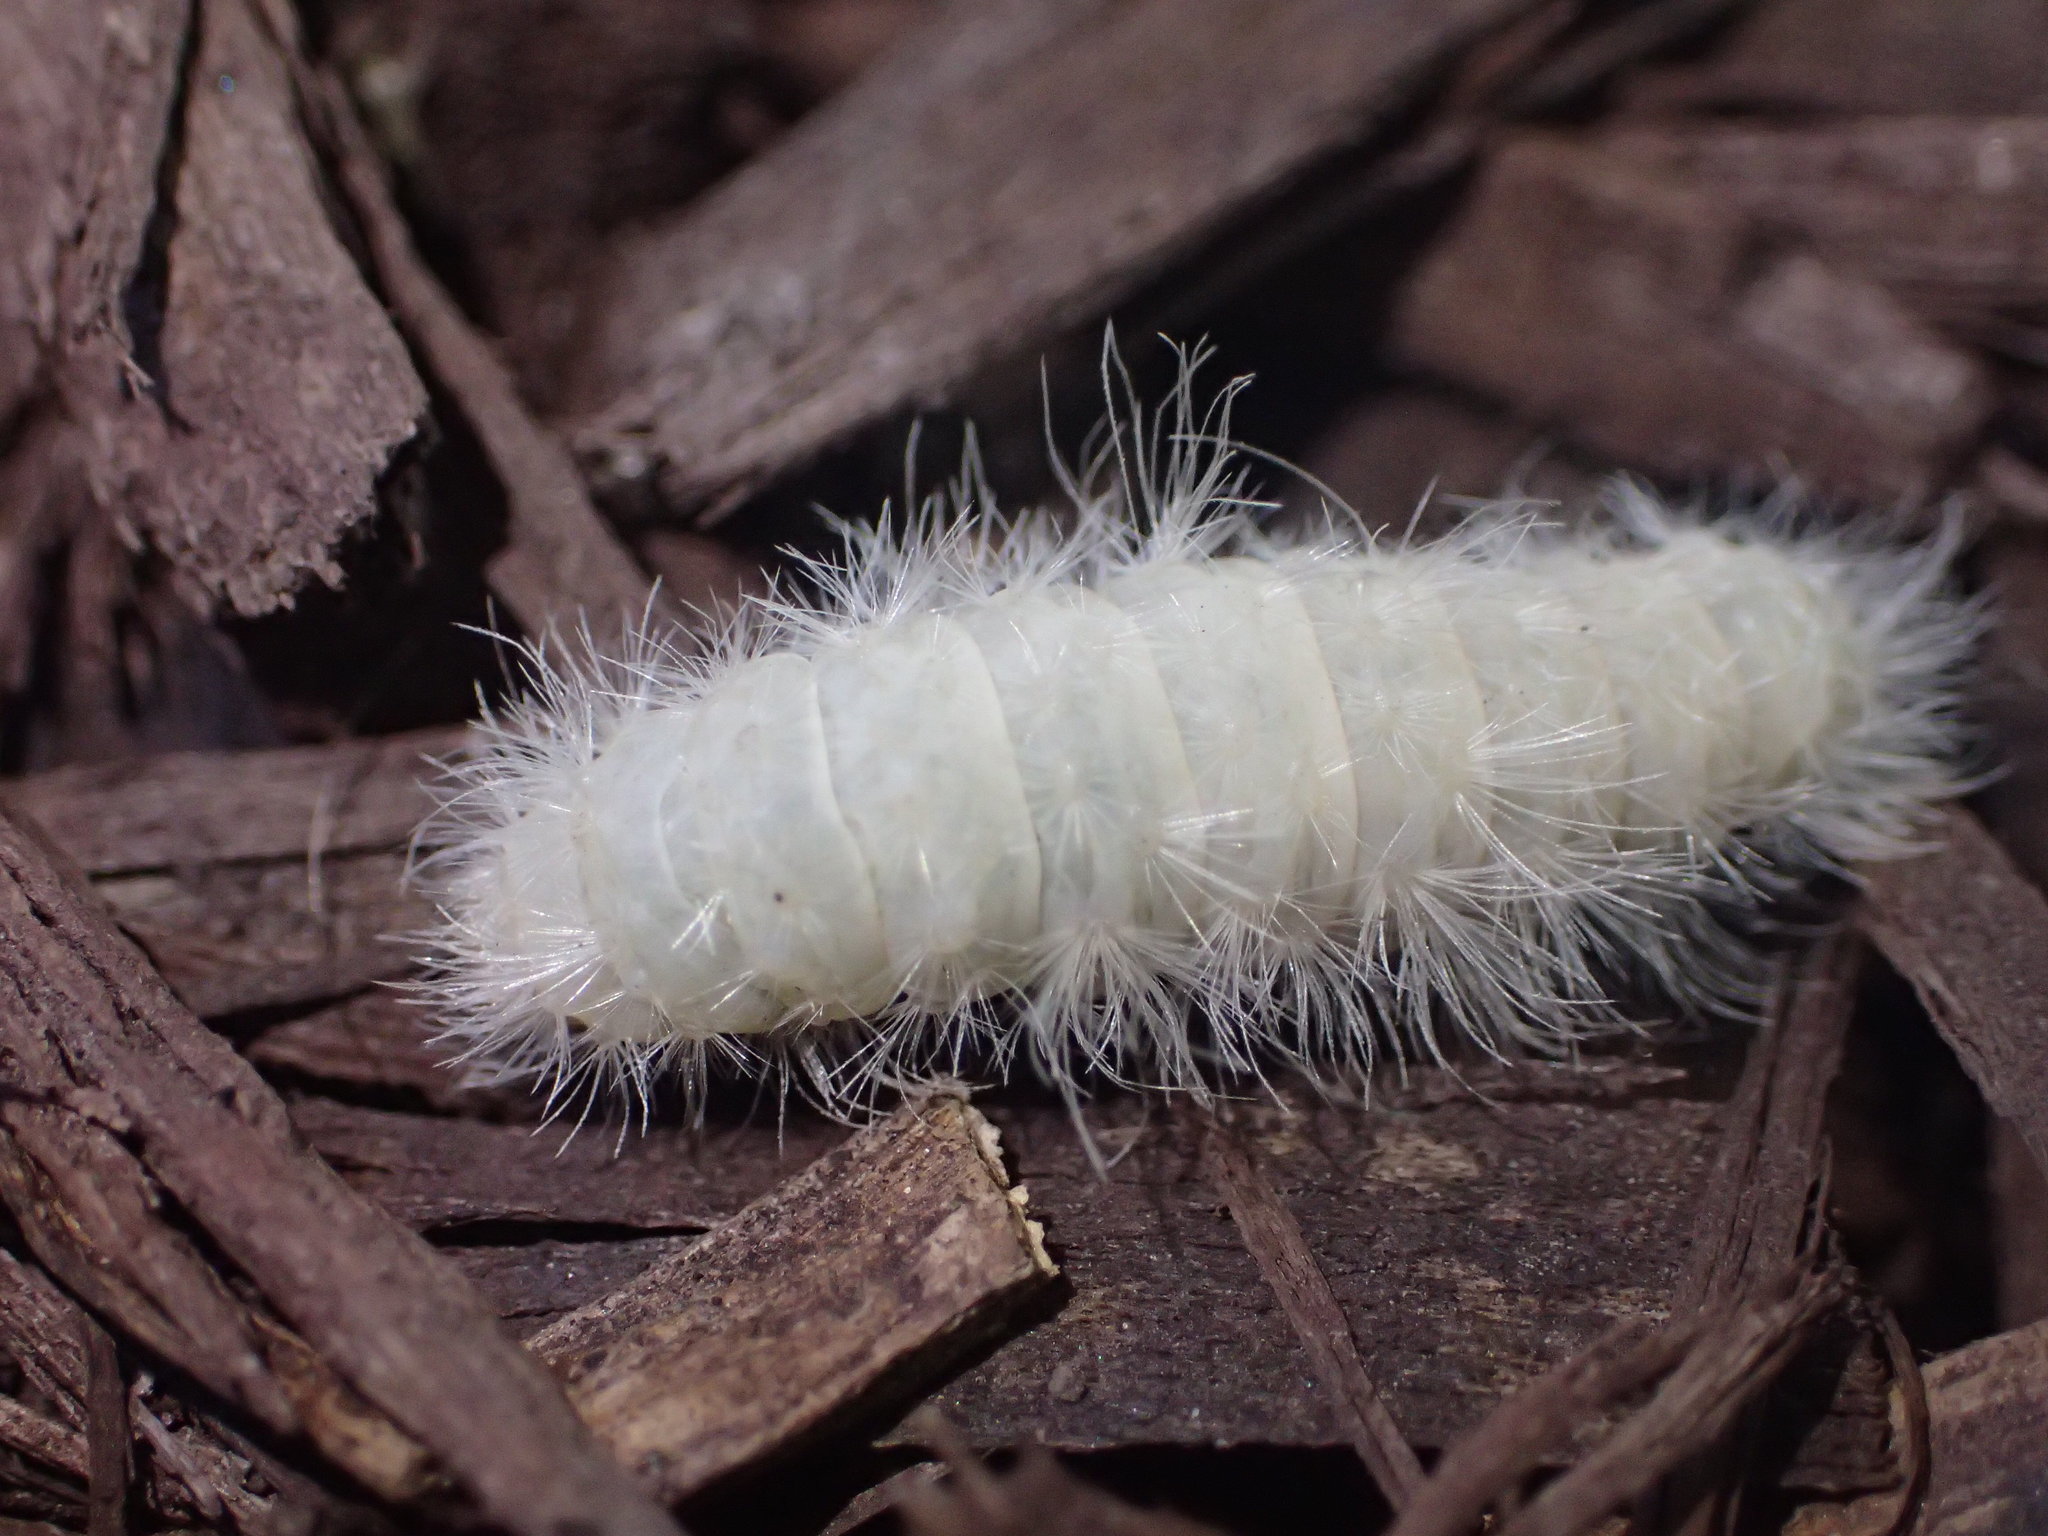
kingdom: Animalia
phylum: Arthropoda
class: Insecta
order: Lepidoptera
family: Erebidae
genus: Cycnia
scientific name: Cycnia tenera
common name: Delicate cycnia moth
